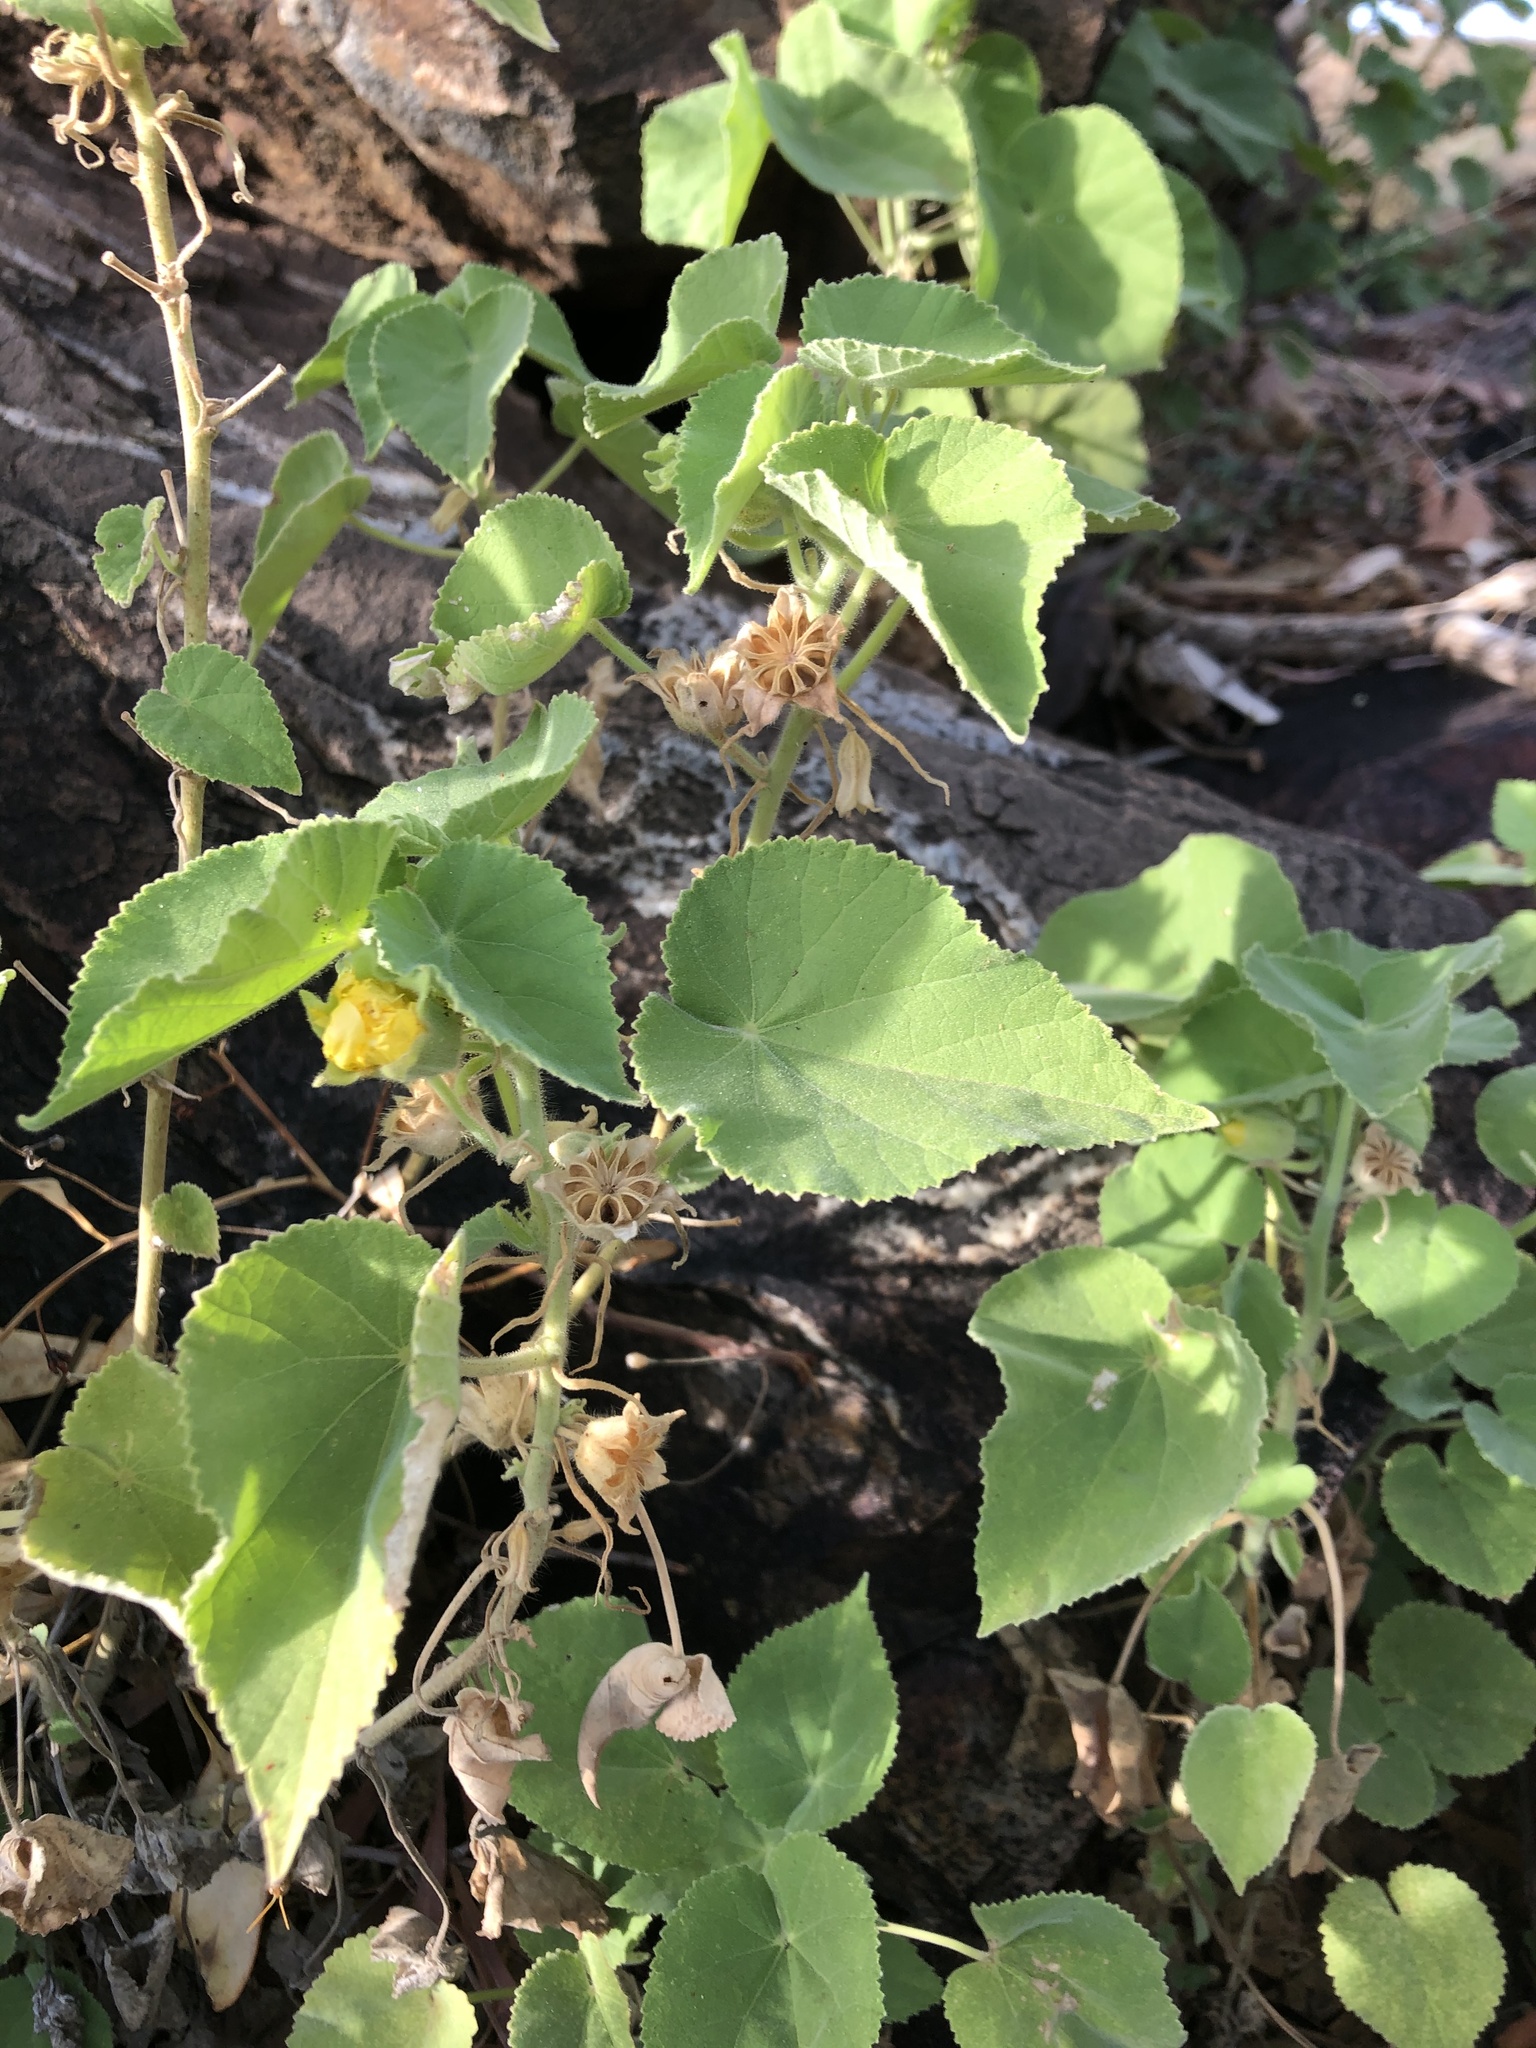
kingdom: Plantae
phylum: Tracheophyta
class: Magnoliopsida
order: Malvales
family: Malvaceae
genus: Abutilon
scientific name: Abutilon fraseri
